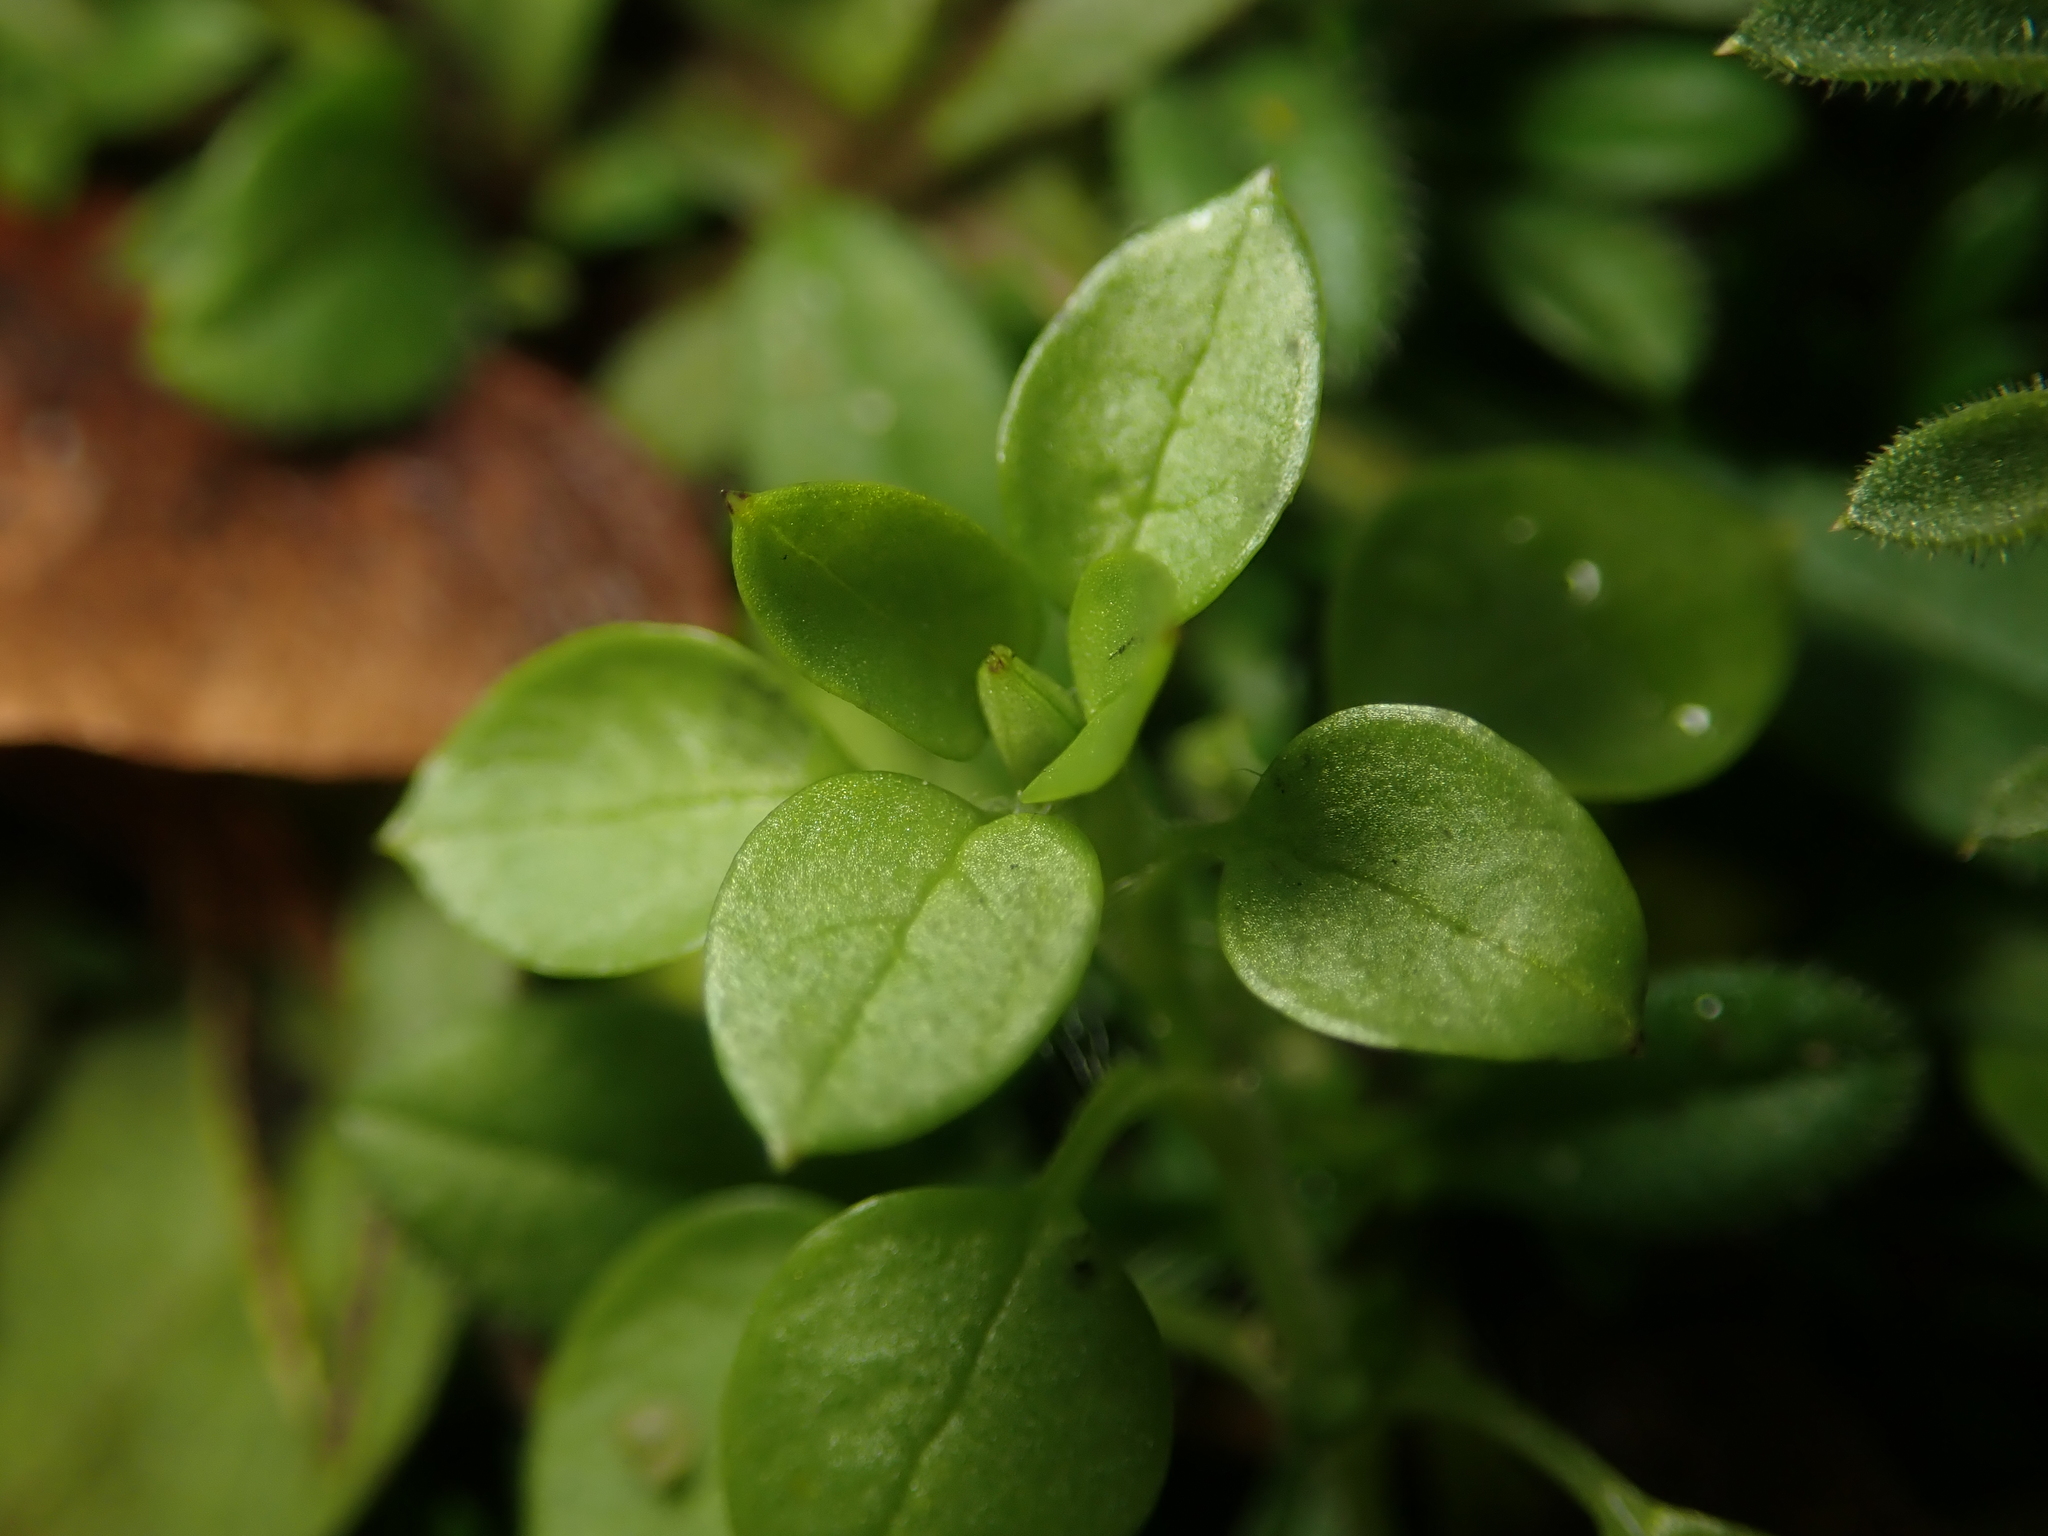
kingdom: Plantae
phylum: Tracheophyta
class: Magnoliopsida
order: Caryophyllales
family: Caryophyllaceae
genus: Stellaria
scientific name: Stellaria media
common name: Common chickweed
